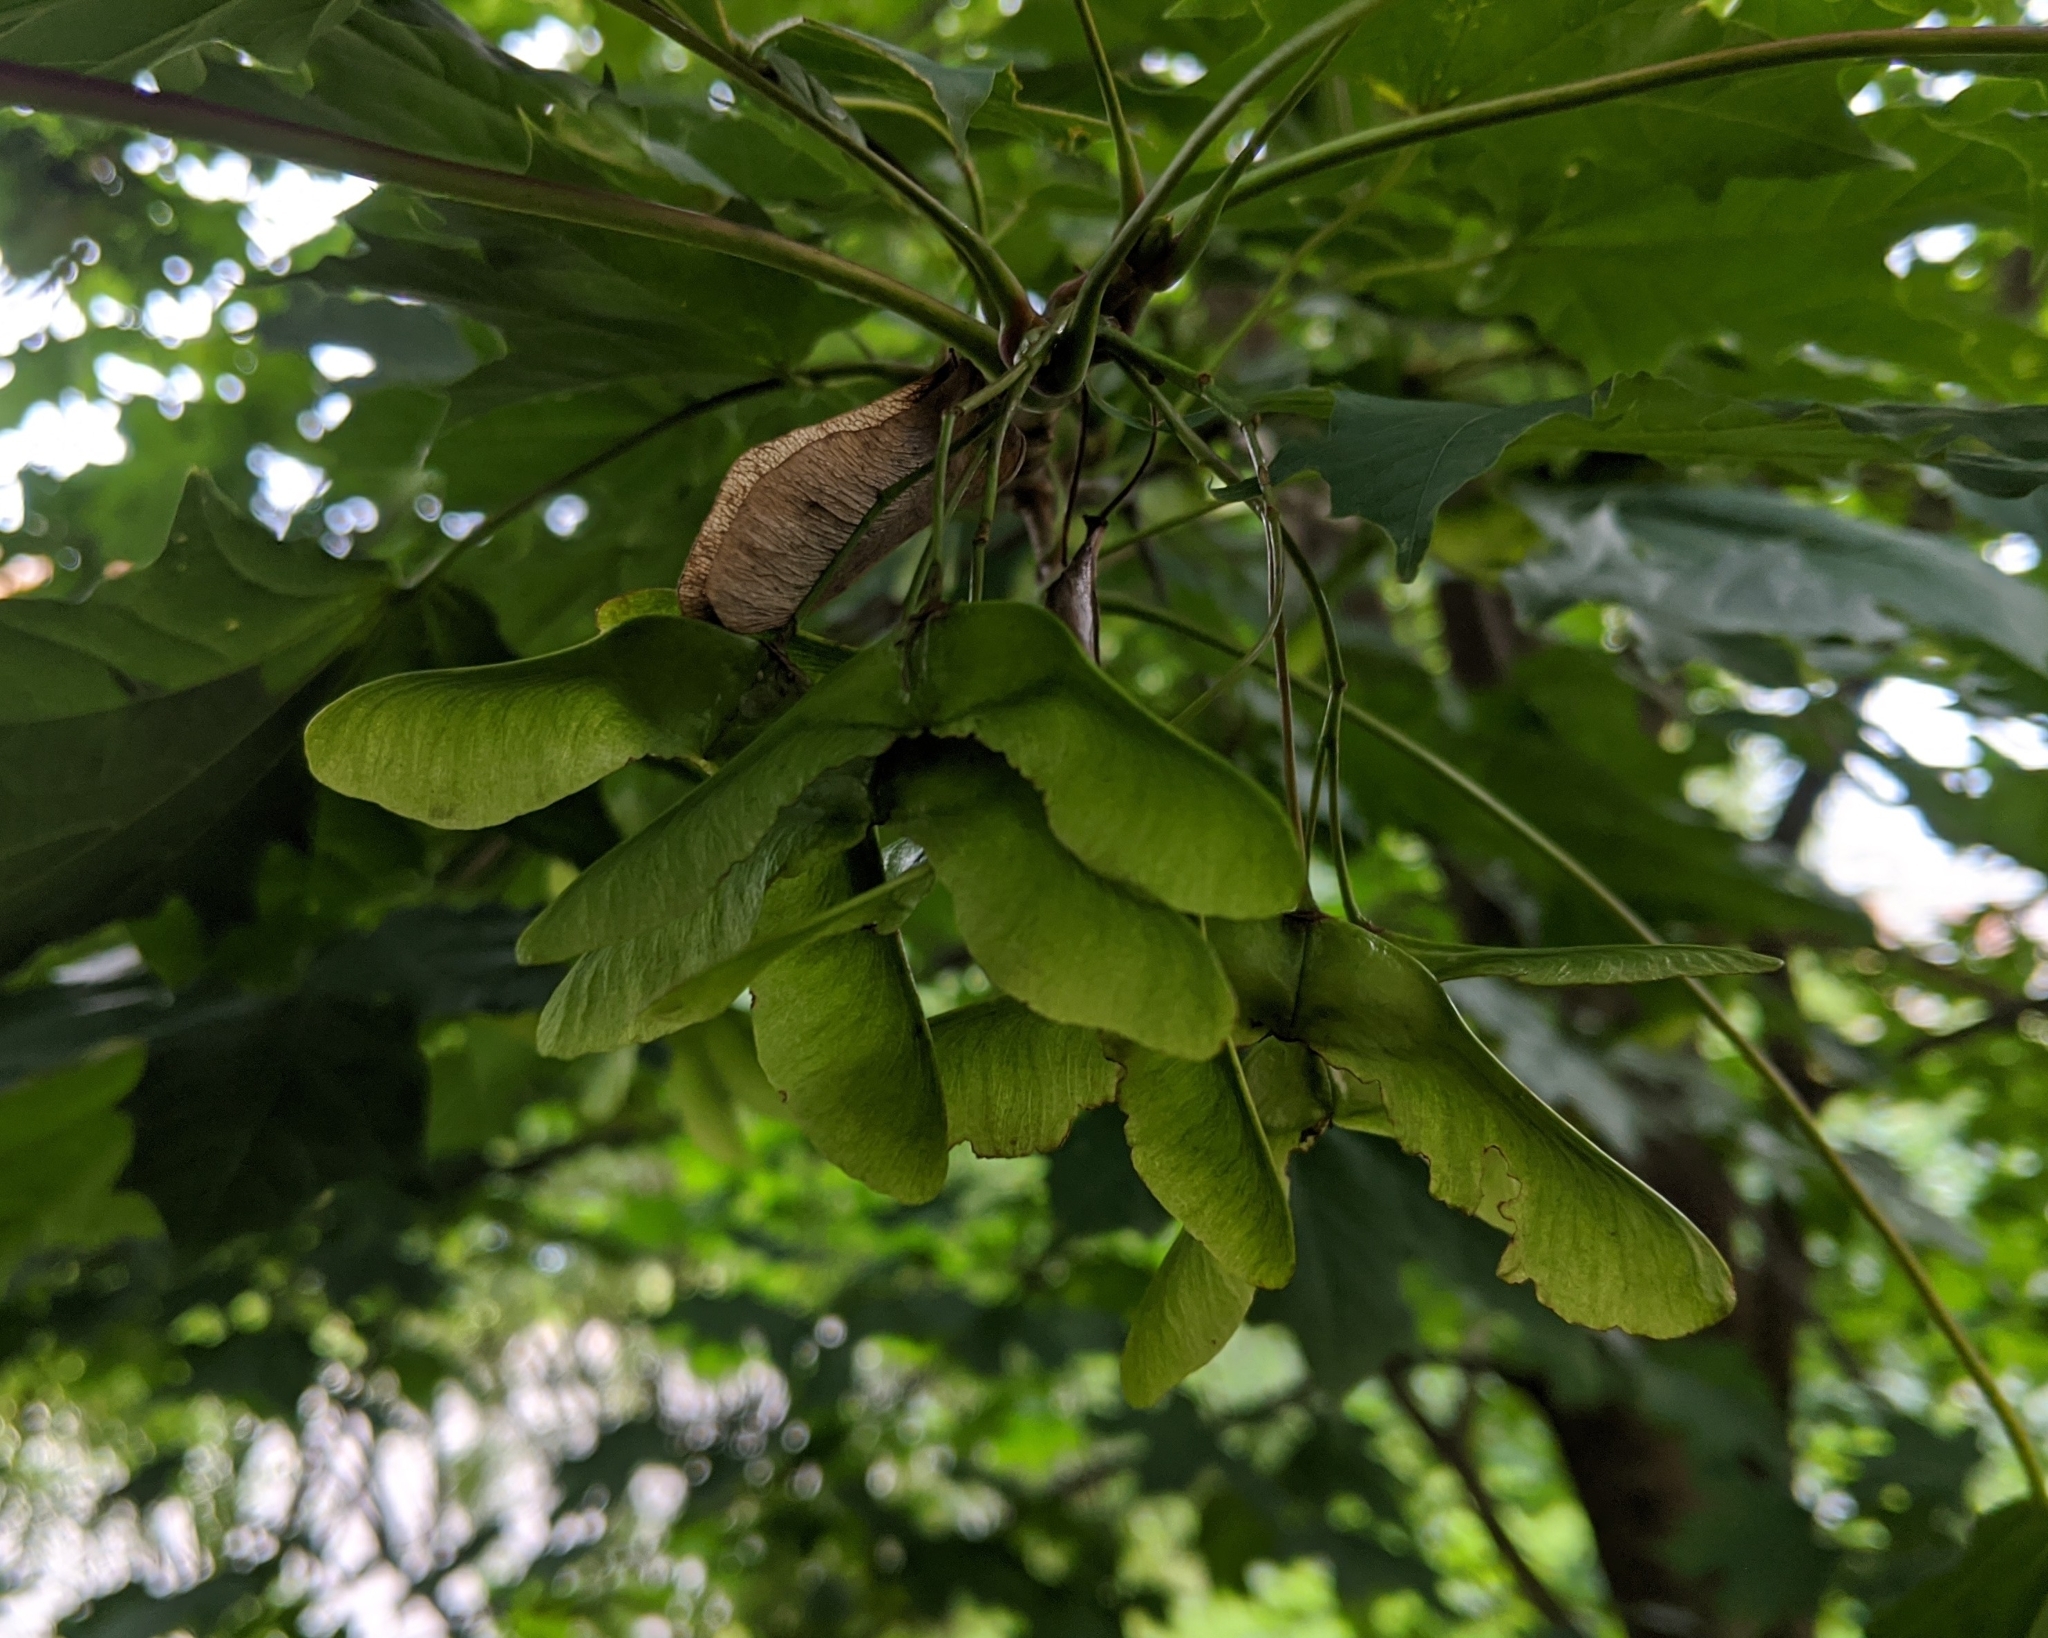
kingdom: Plantae
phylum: Tracheophyta
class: Magnoliopsida
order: Sapindales
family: Sapindaceae
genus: Acer
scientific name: Acer platanoides
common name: Norway maple
